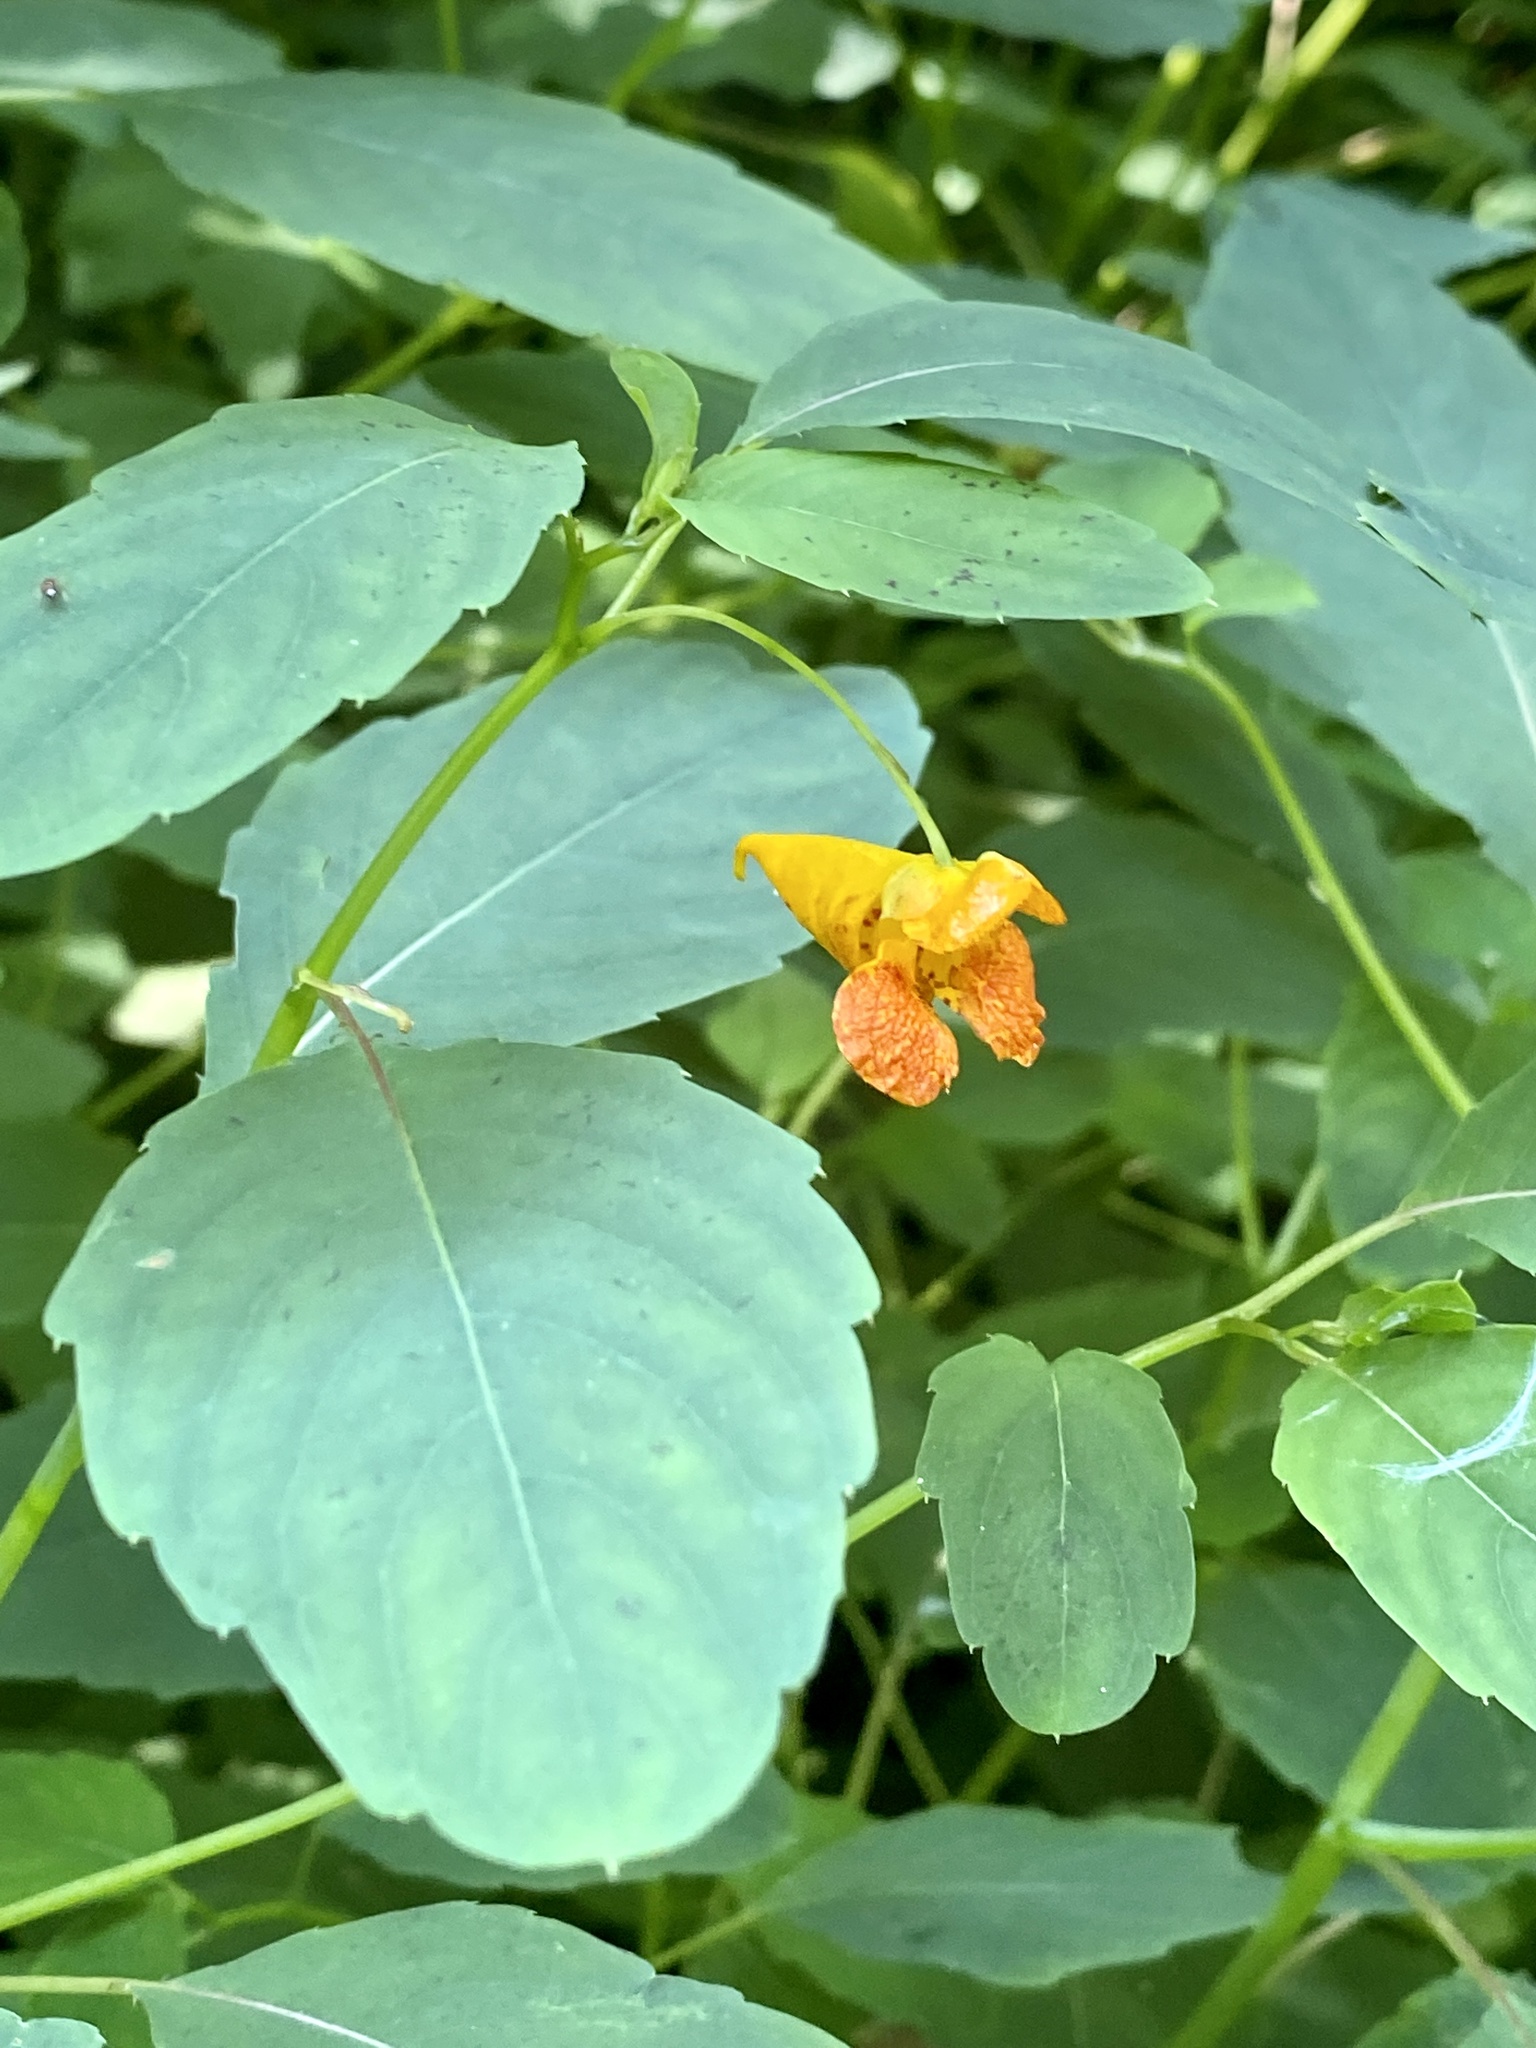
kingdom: Plantae
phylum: Tracheophyta
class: Magnoliopsida
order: Ericales
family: Balsaminaceae
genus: Impatiens
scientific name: Impatiens capensis
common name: Orange balsam
